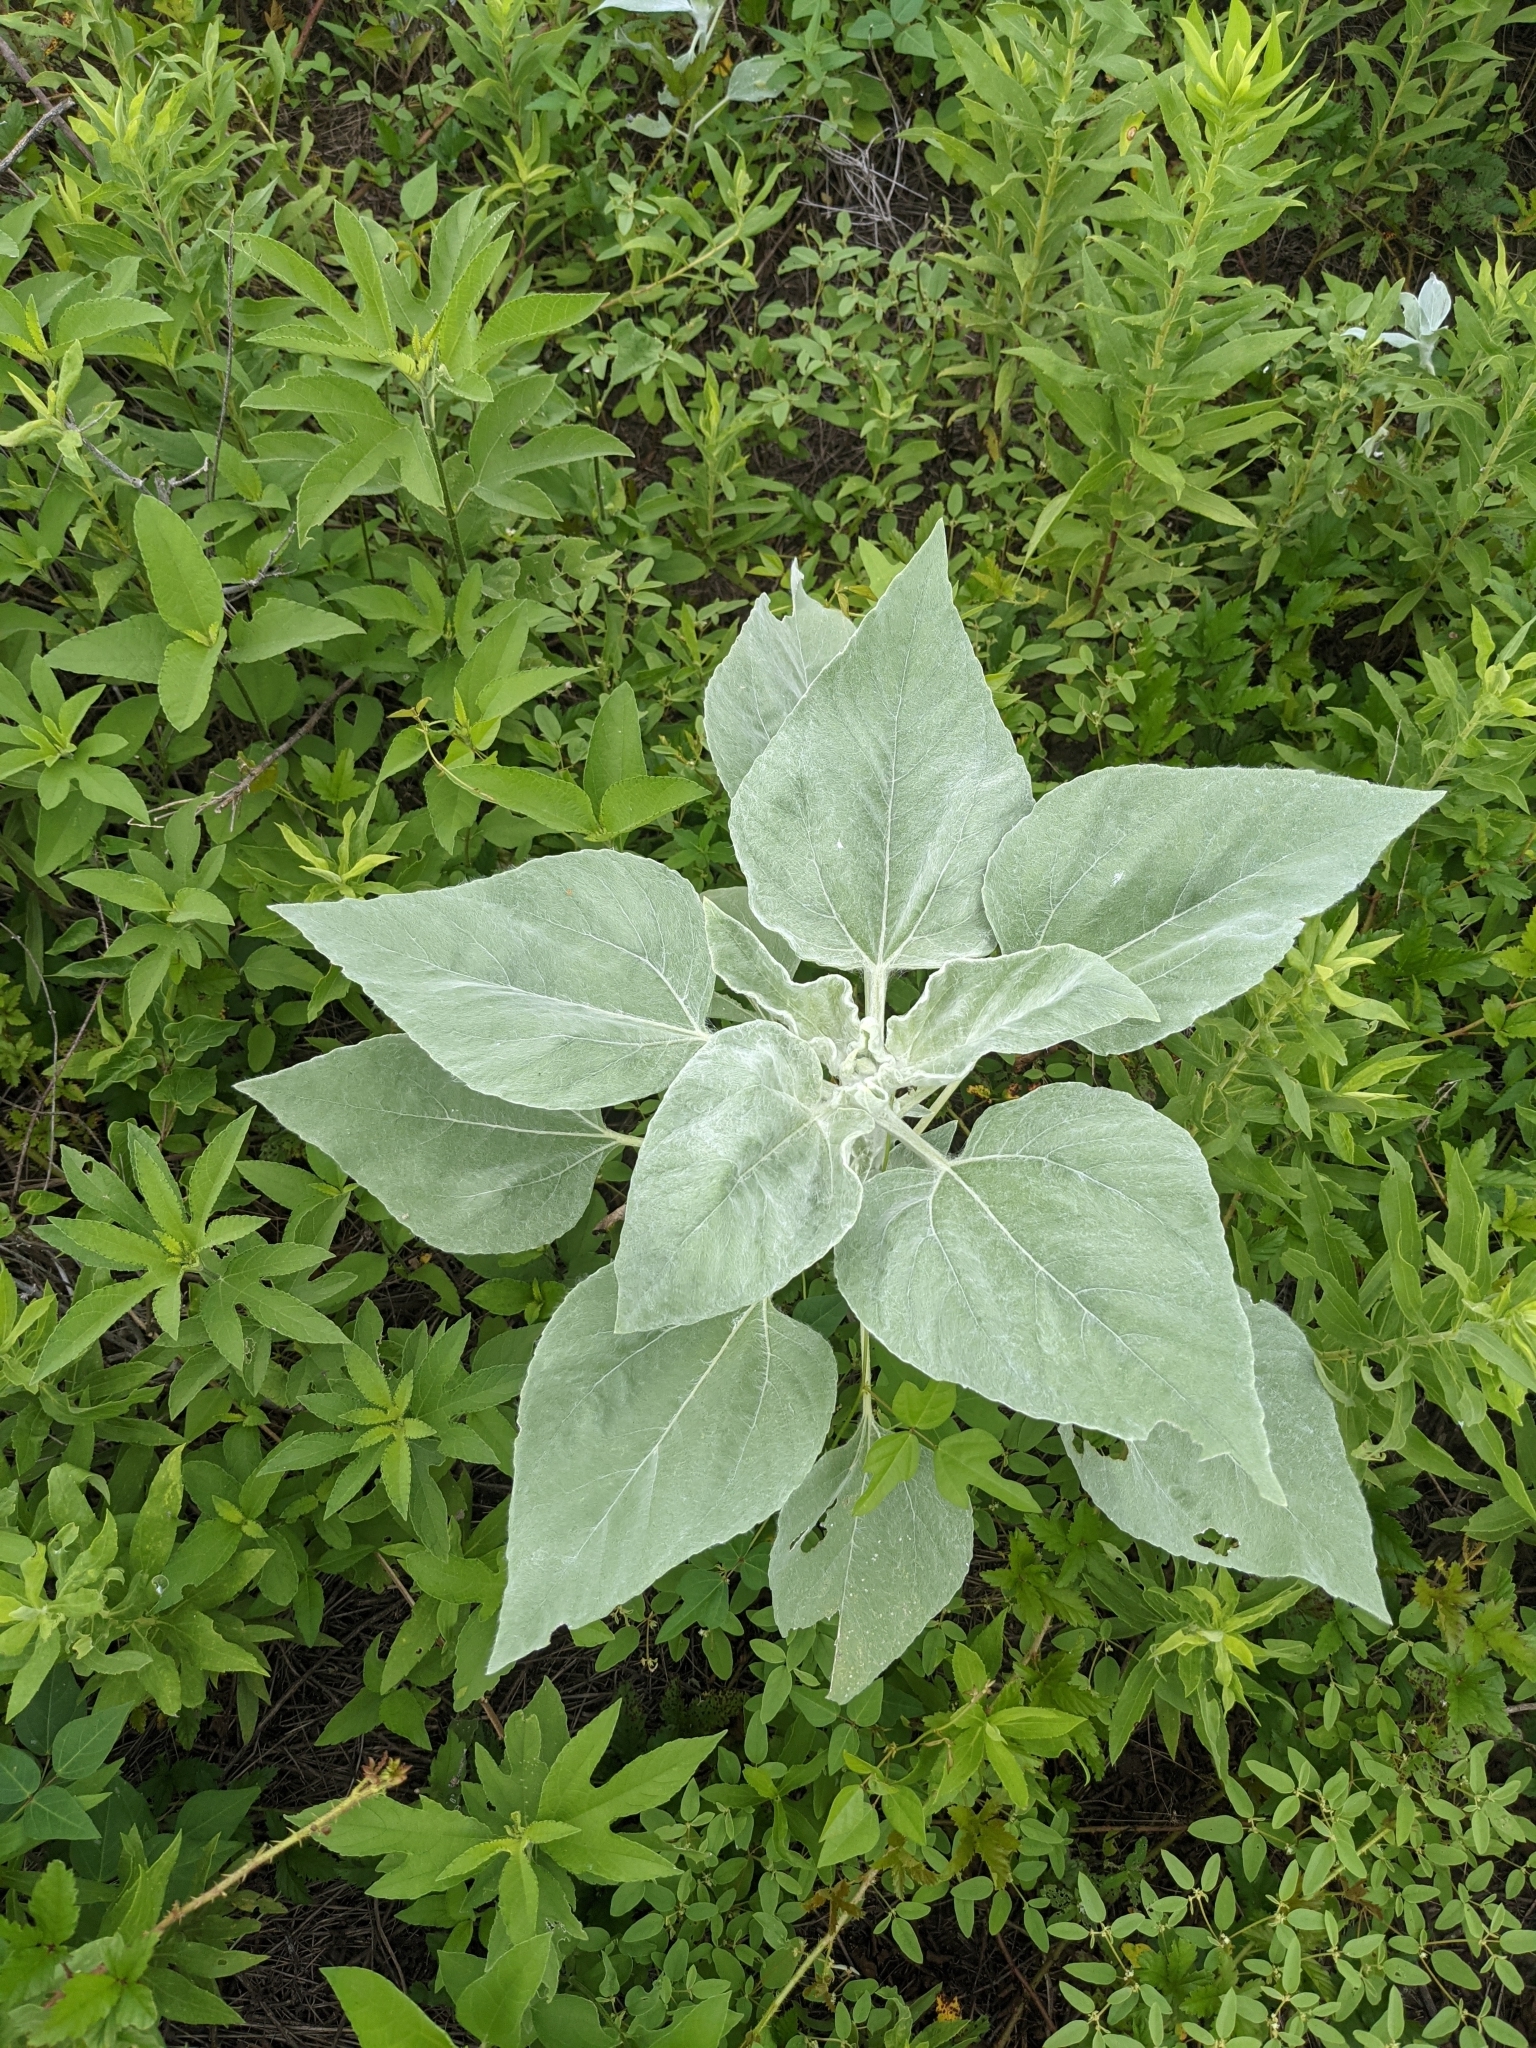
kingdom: Plantae
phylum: Tracheophyta
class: Magnoliopsida
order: Asterales
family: Asteraceae
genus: Helianthus
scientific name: Helianthus argophyllus
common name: Silverleaf sunflower
